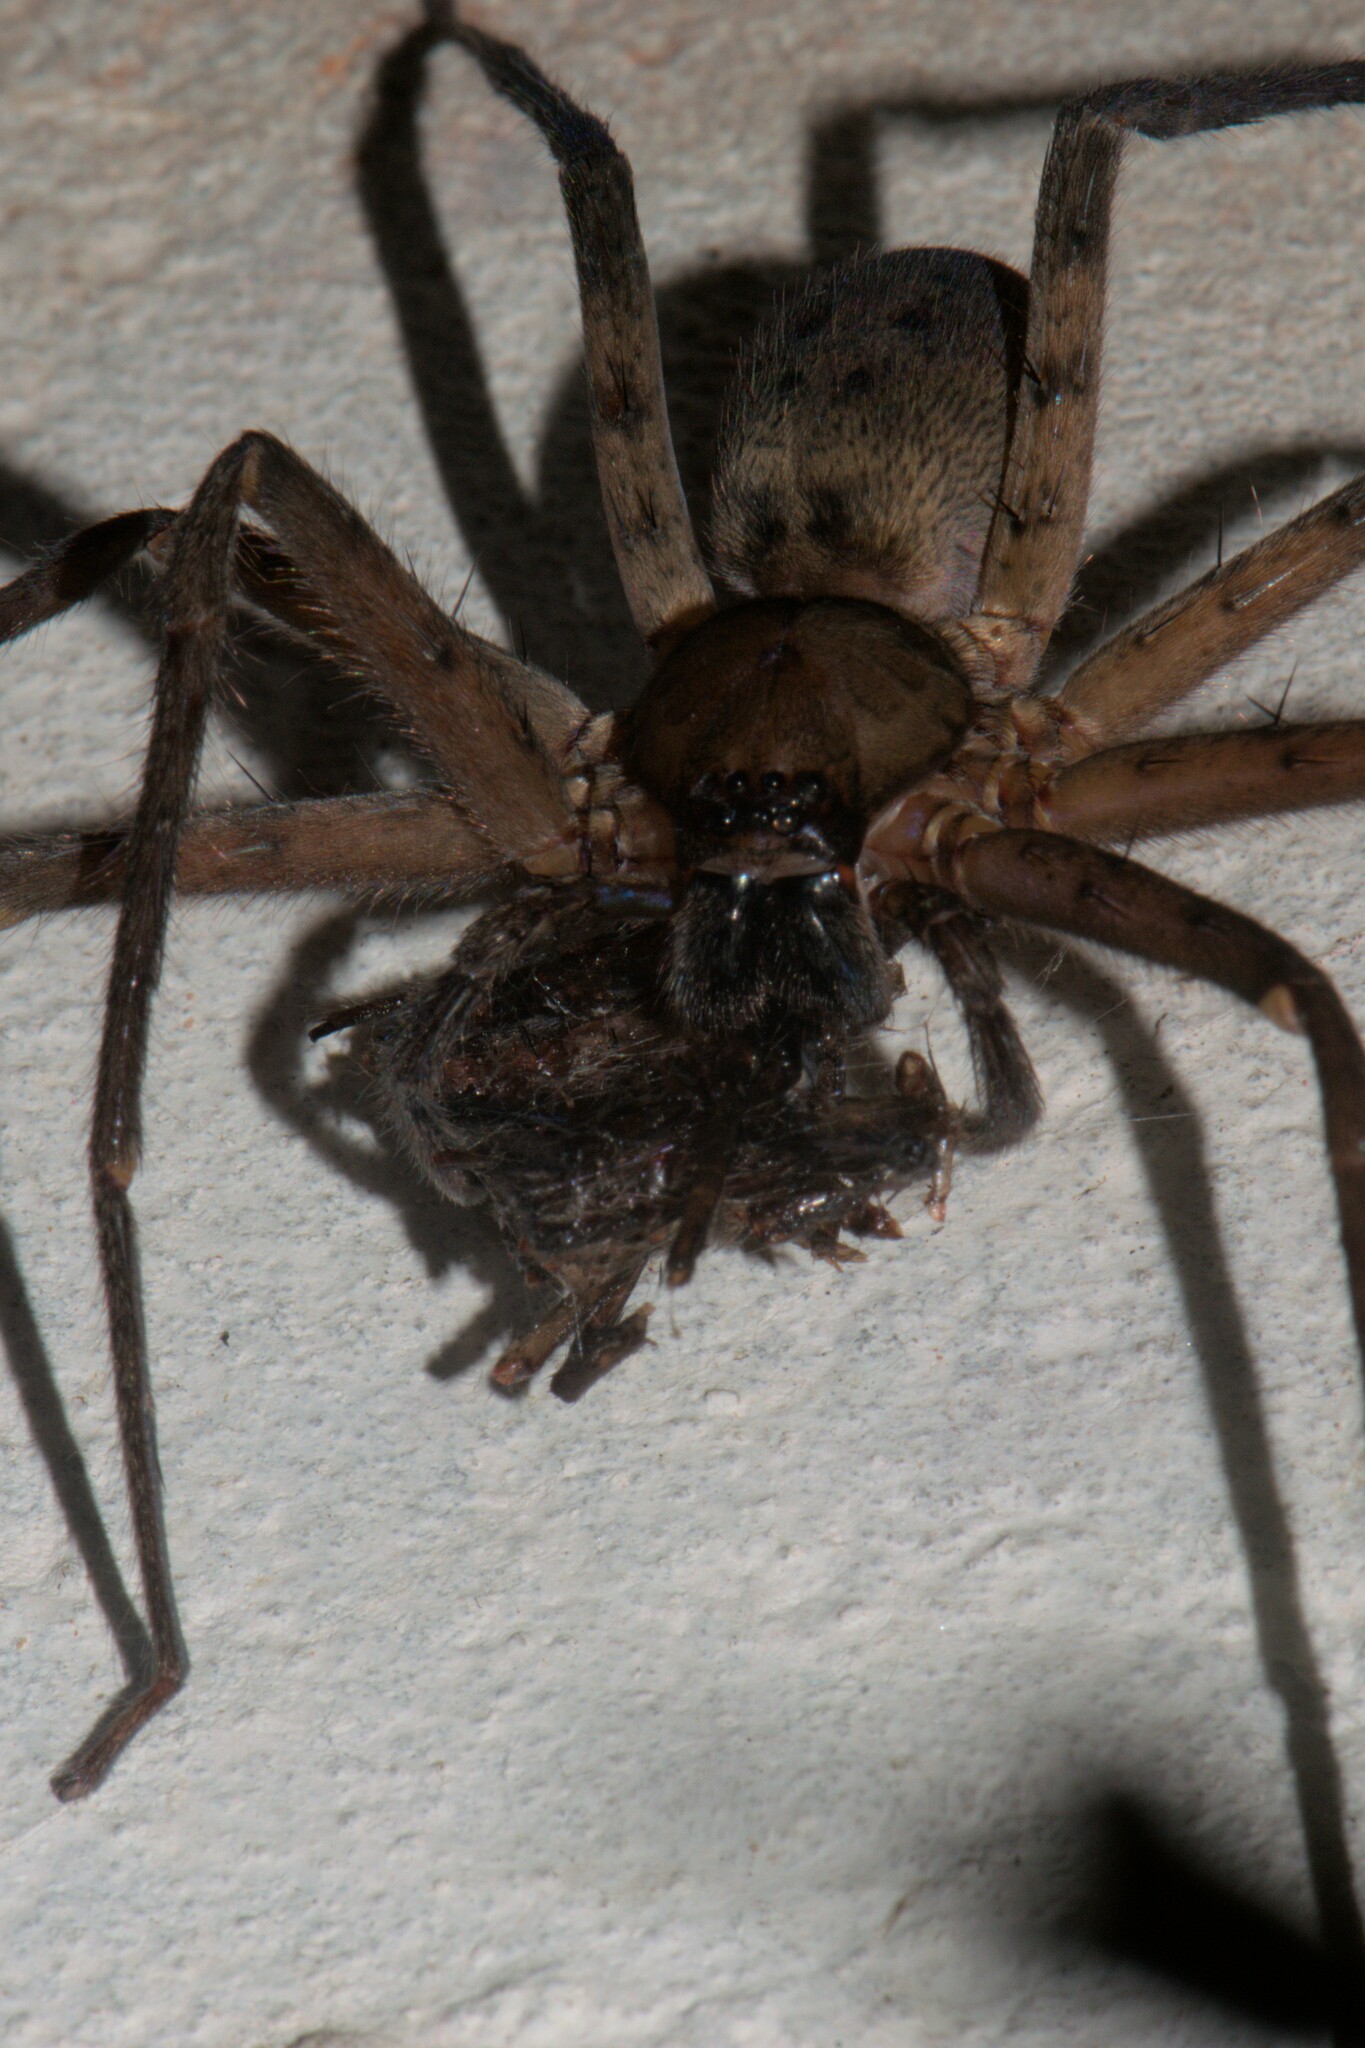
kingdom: Animalia
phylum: Arthropoda
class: Arachnida
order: Araneae
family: Sparassidae
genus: Heteropoda
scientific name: Heteropoda venatoria
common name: Huntsman spider
